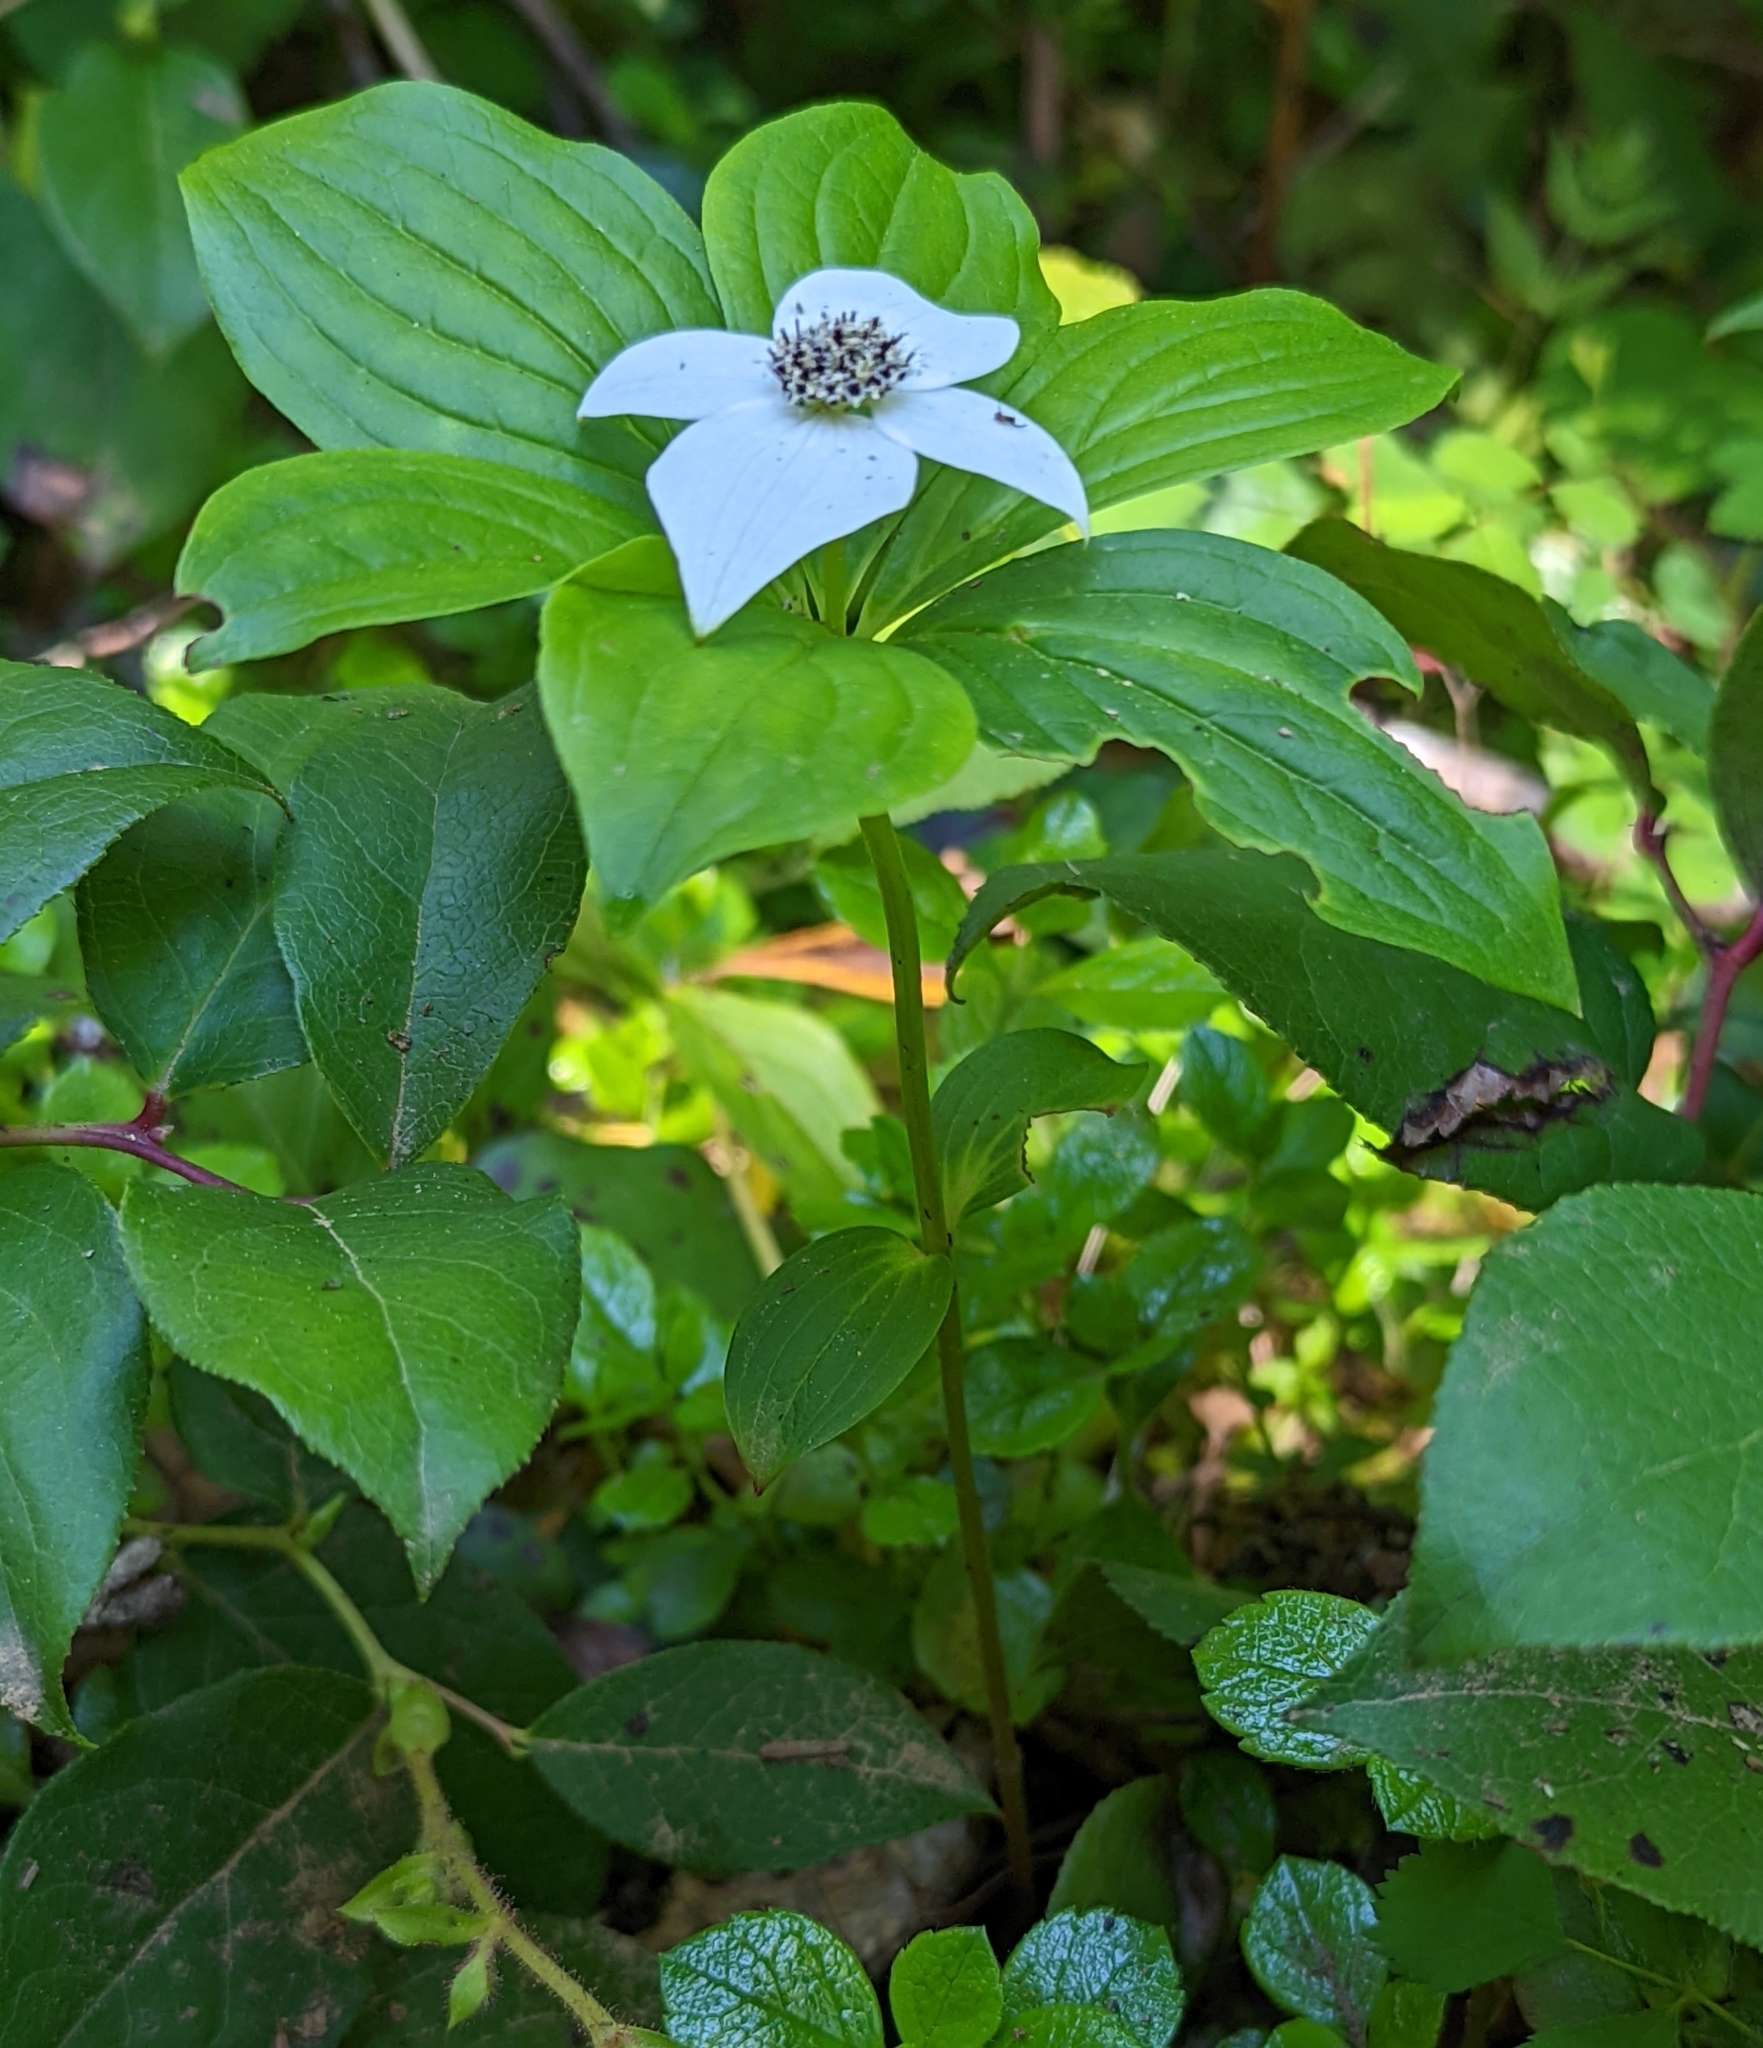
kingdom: Plantae
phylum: Tracheophyta
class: Magnoliopsida
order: Cornales
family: Cornaceae
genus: Cornus
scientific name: Cornus unalaschkensis
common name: Alaska bunchberry
